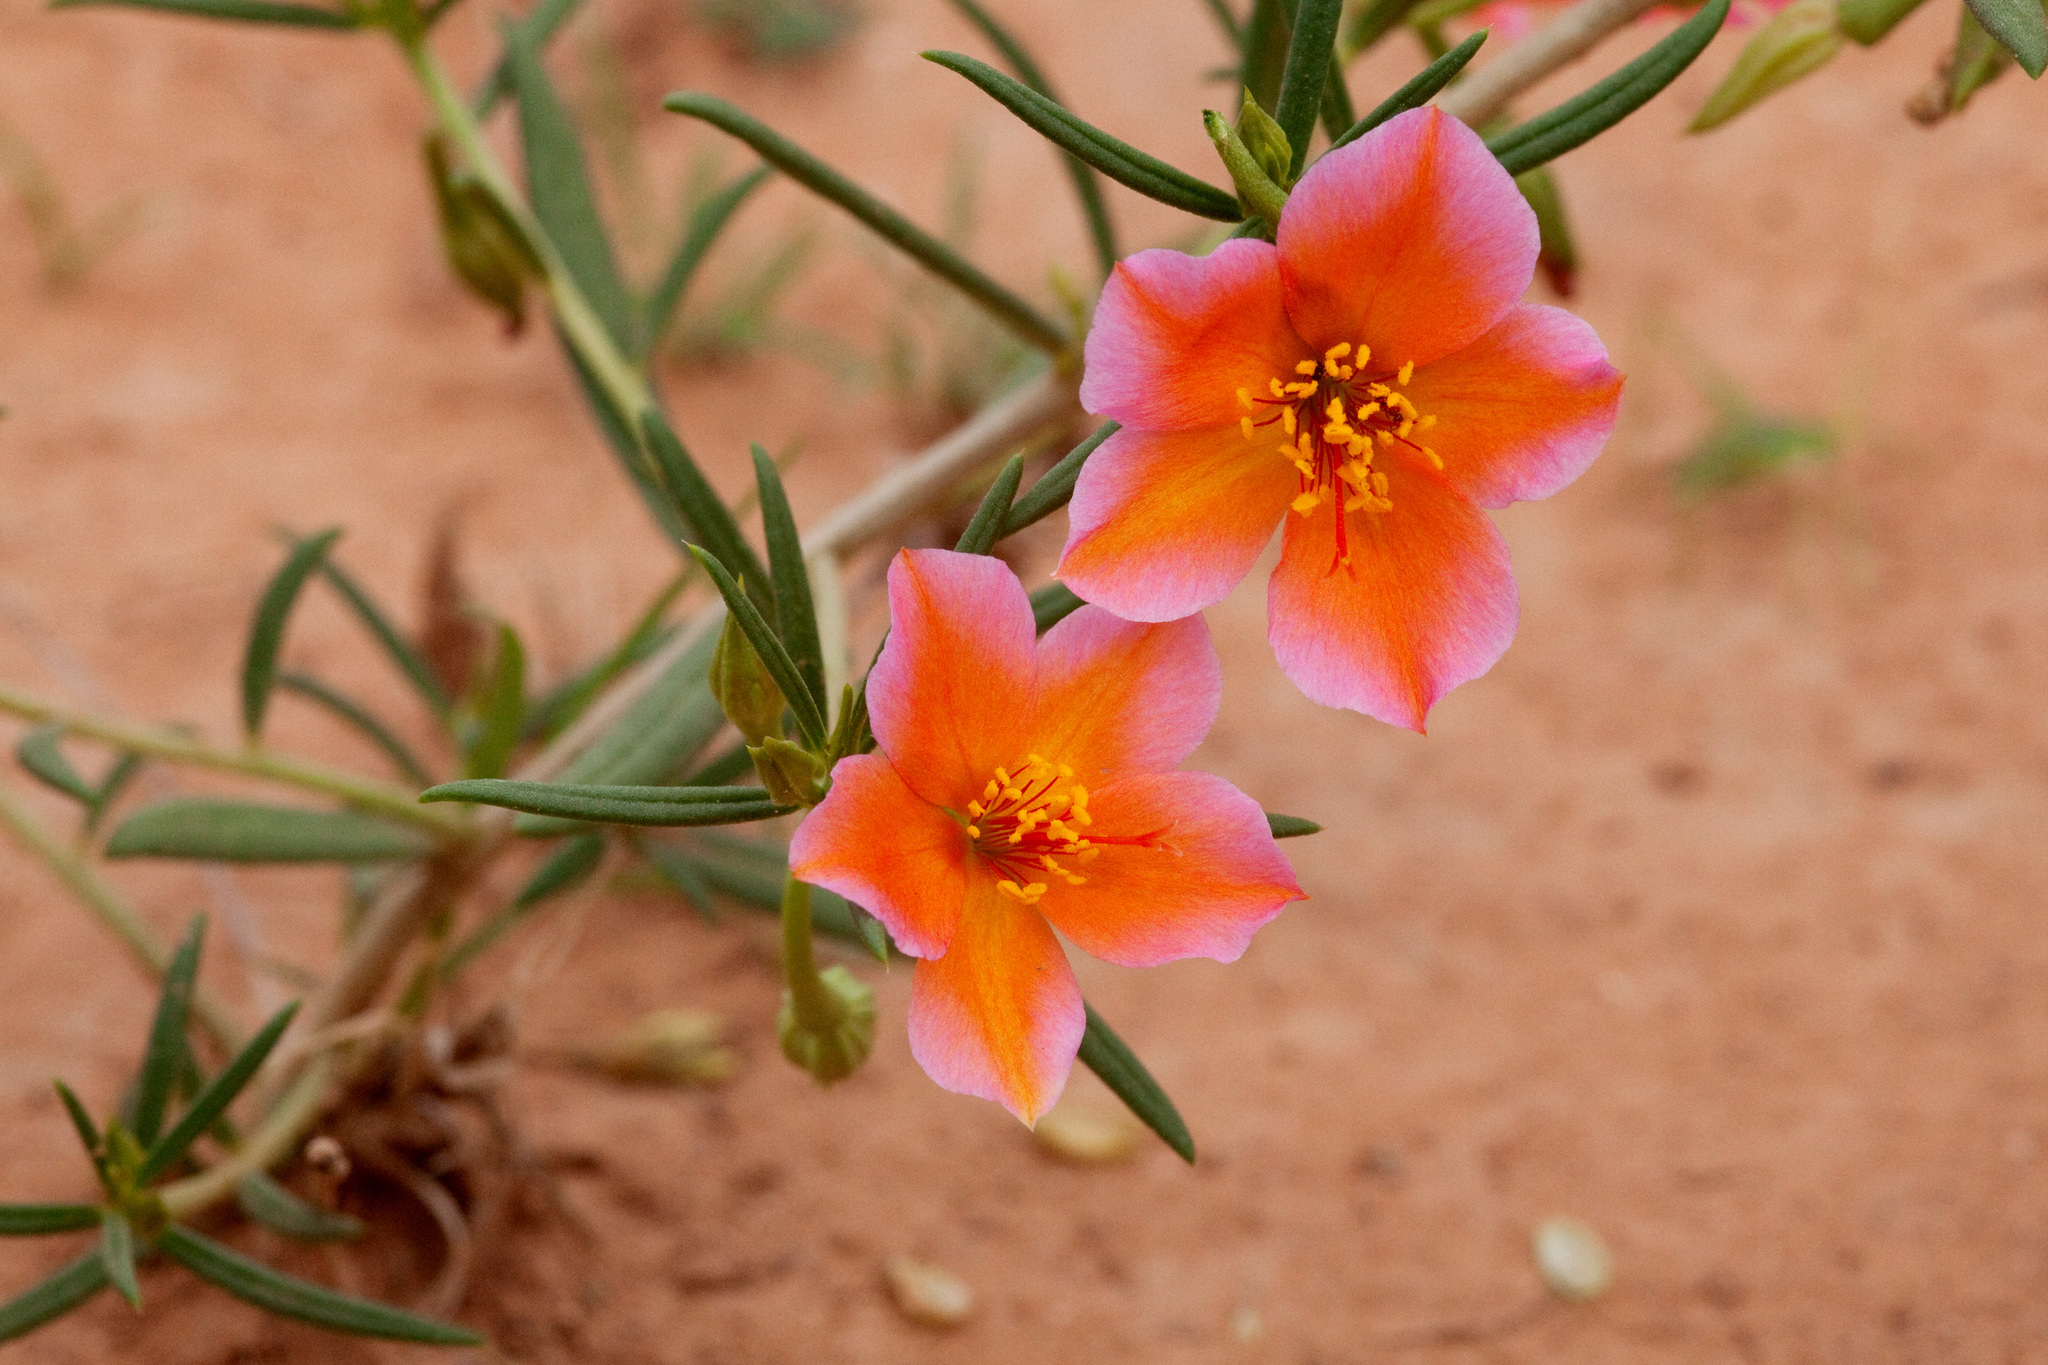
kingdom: Plantae
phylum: Tracheophyta
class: Magnoliopsida
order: Caryophyllales
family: Montiaceae
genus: Phemeranthus
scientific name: Phemeranthus aurantiacus
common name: Orange fameflower
